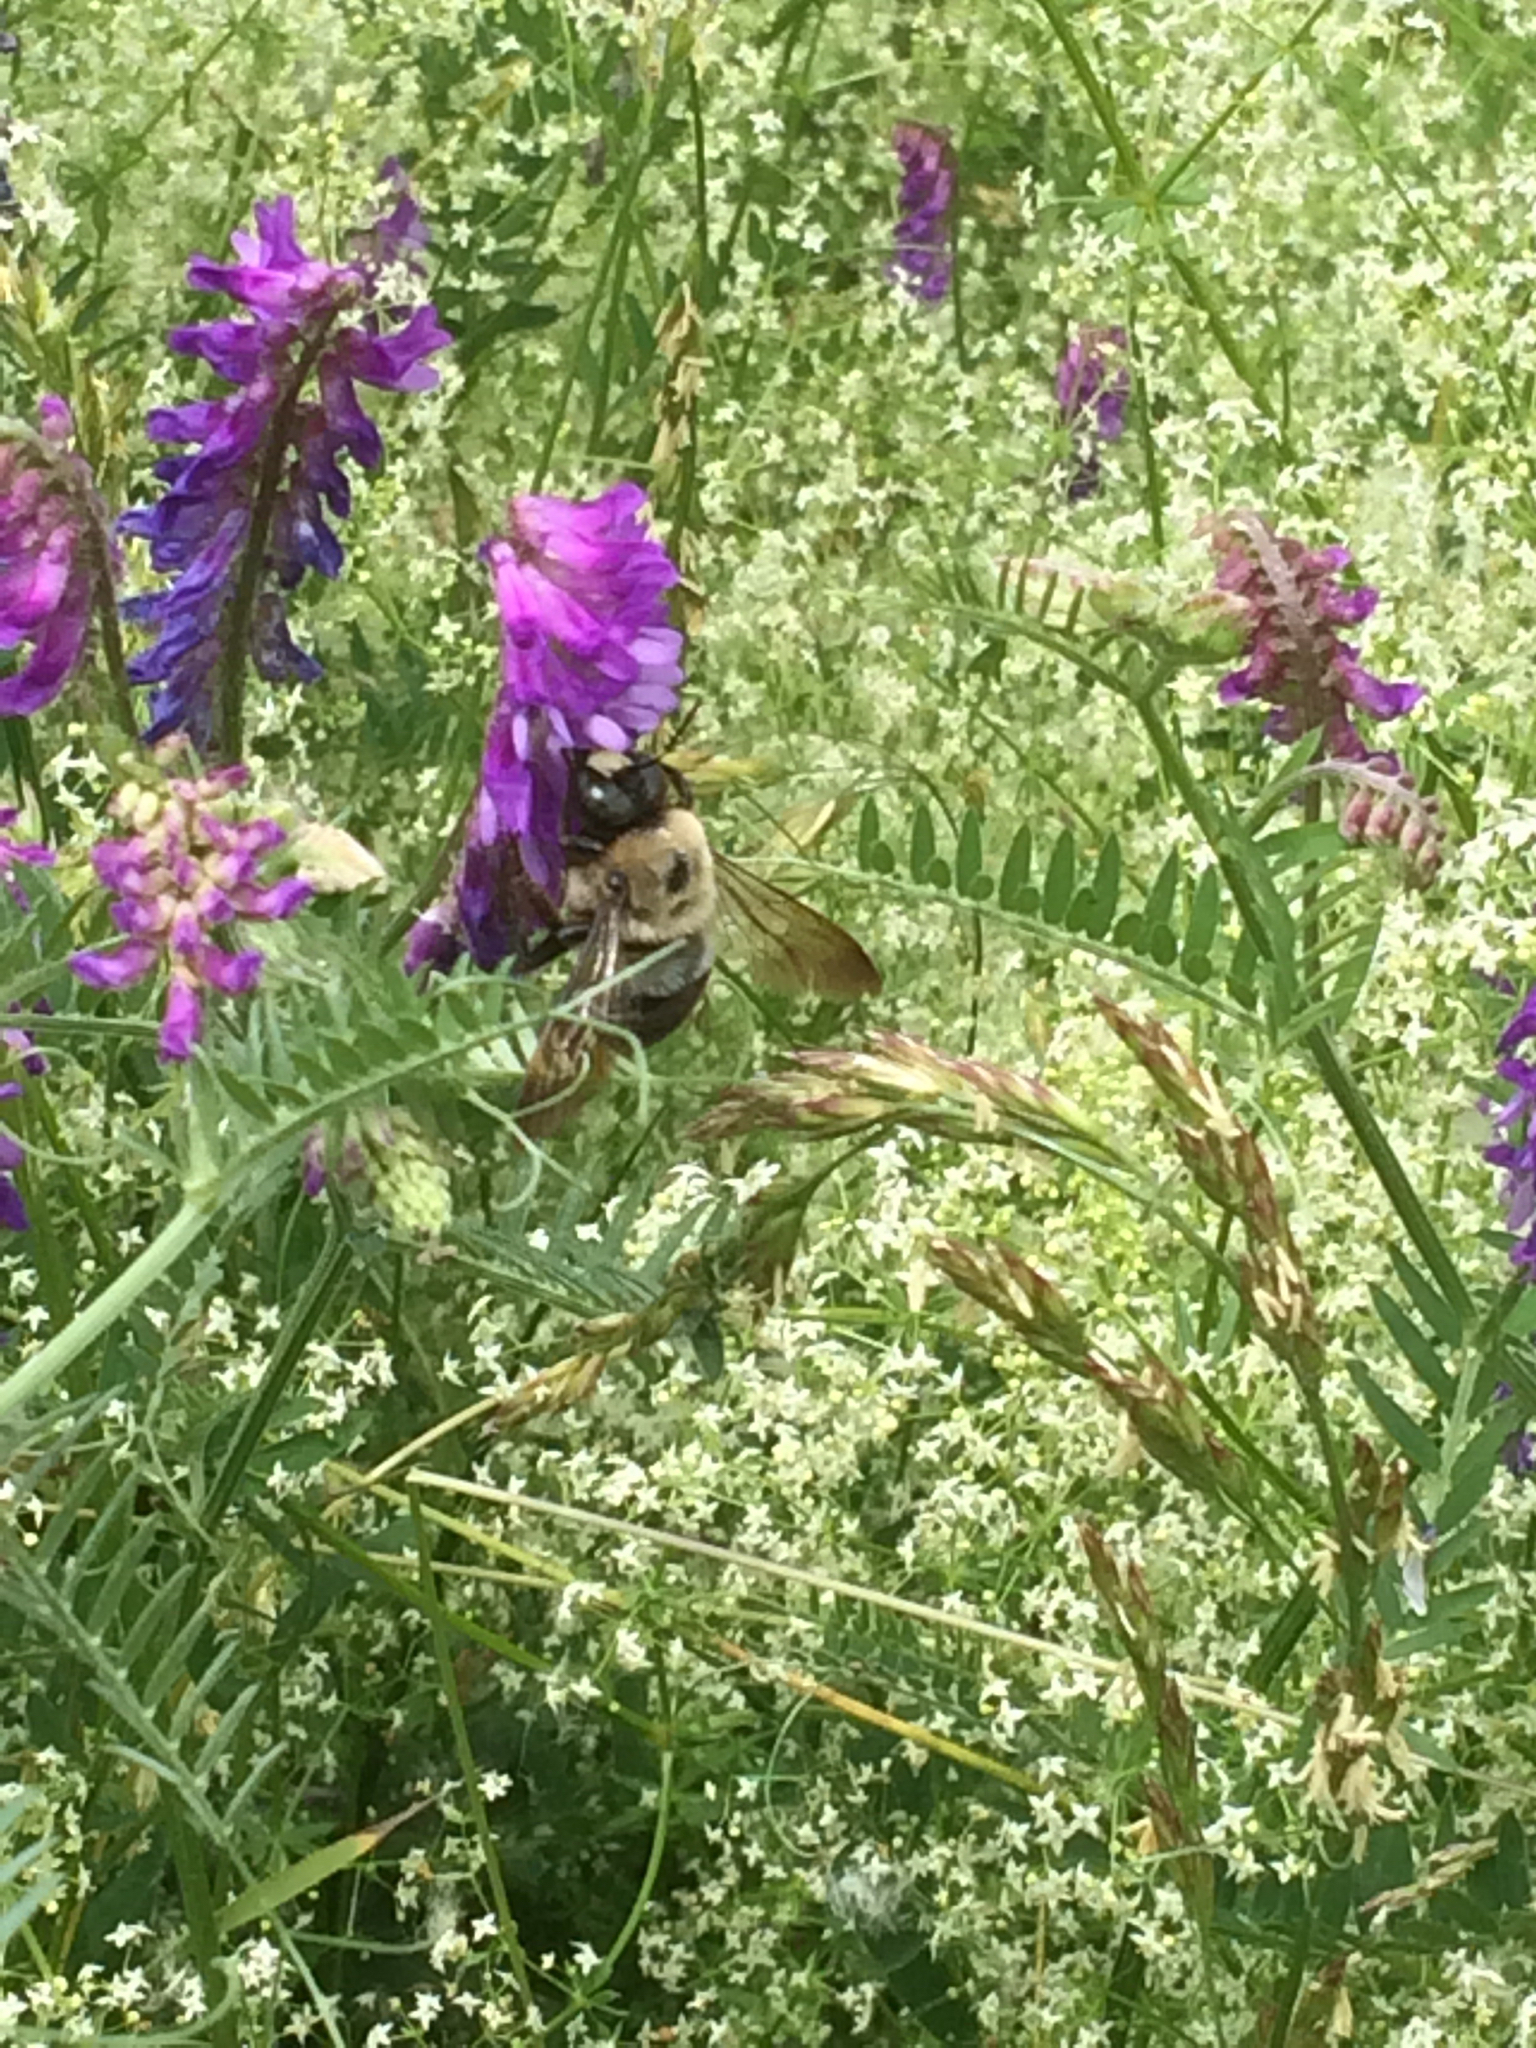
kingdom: Animalia
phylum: Arthropoda
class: Insecta
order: Hymenoptera
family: Apidae
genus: Xylocopa
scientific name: Xylocopa virginica
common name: Carpenter bee
